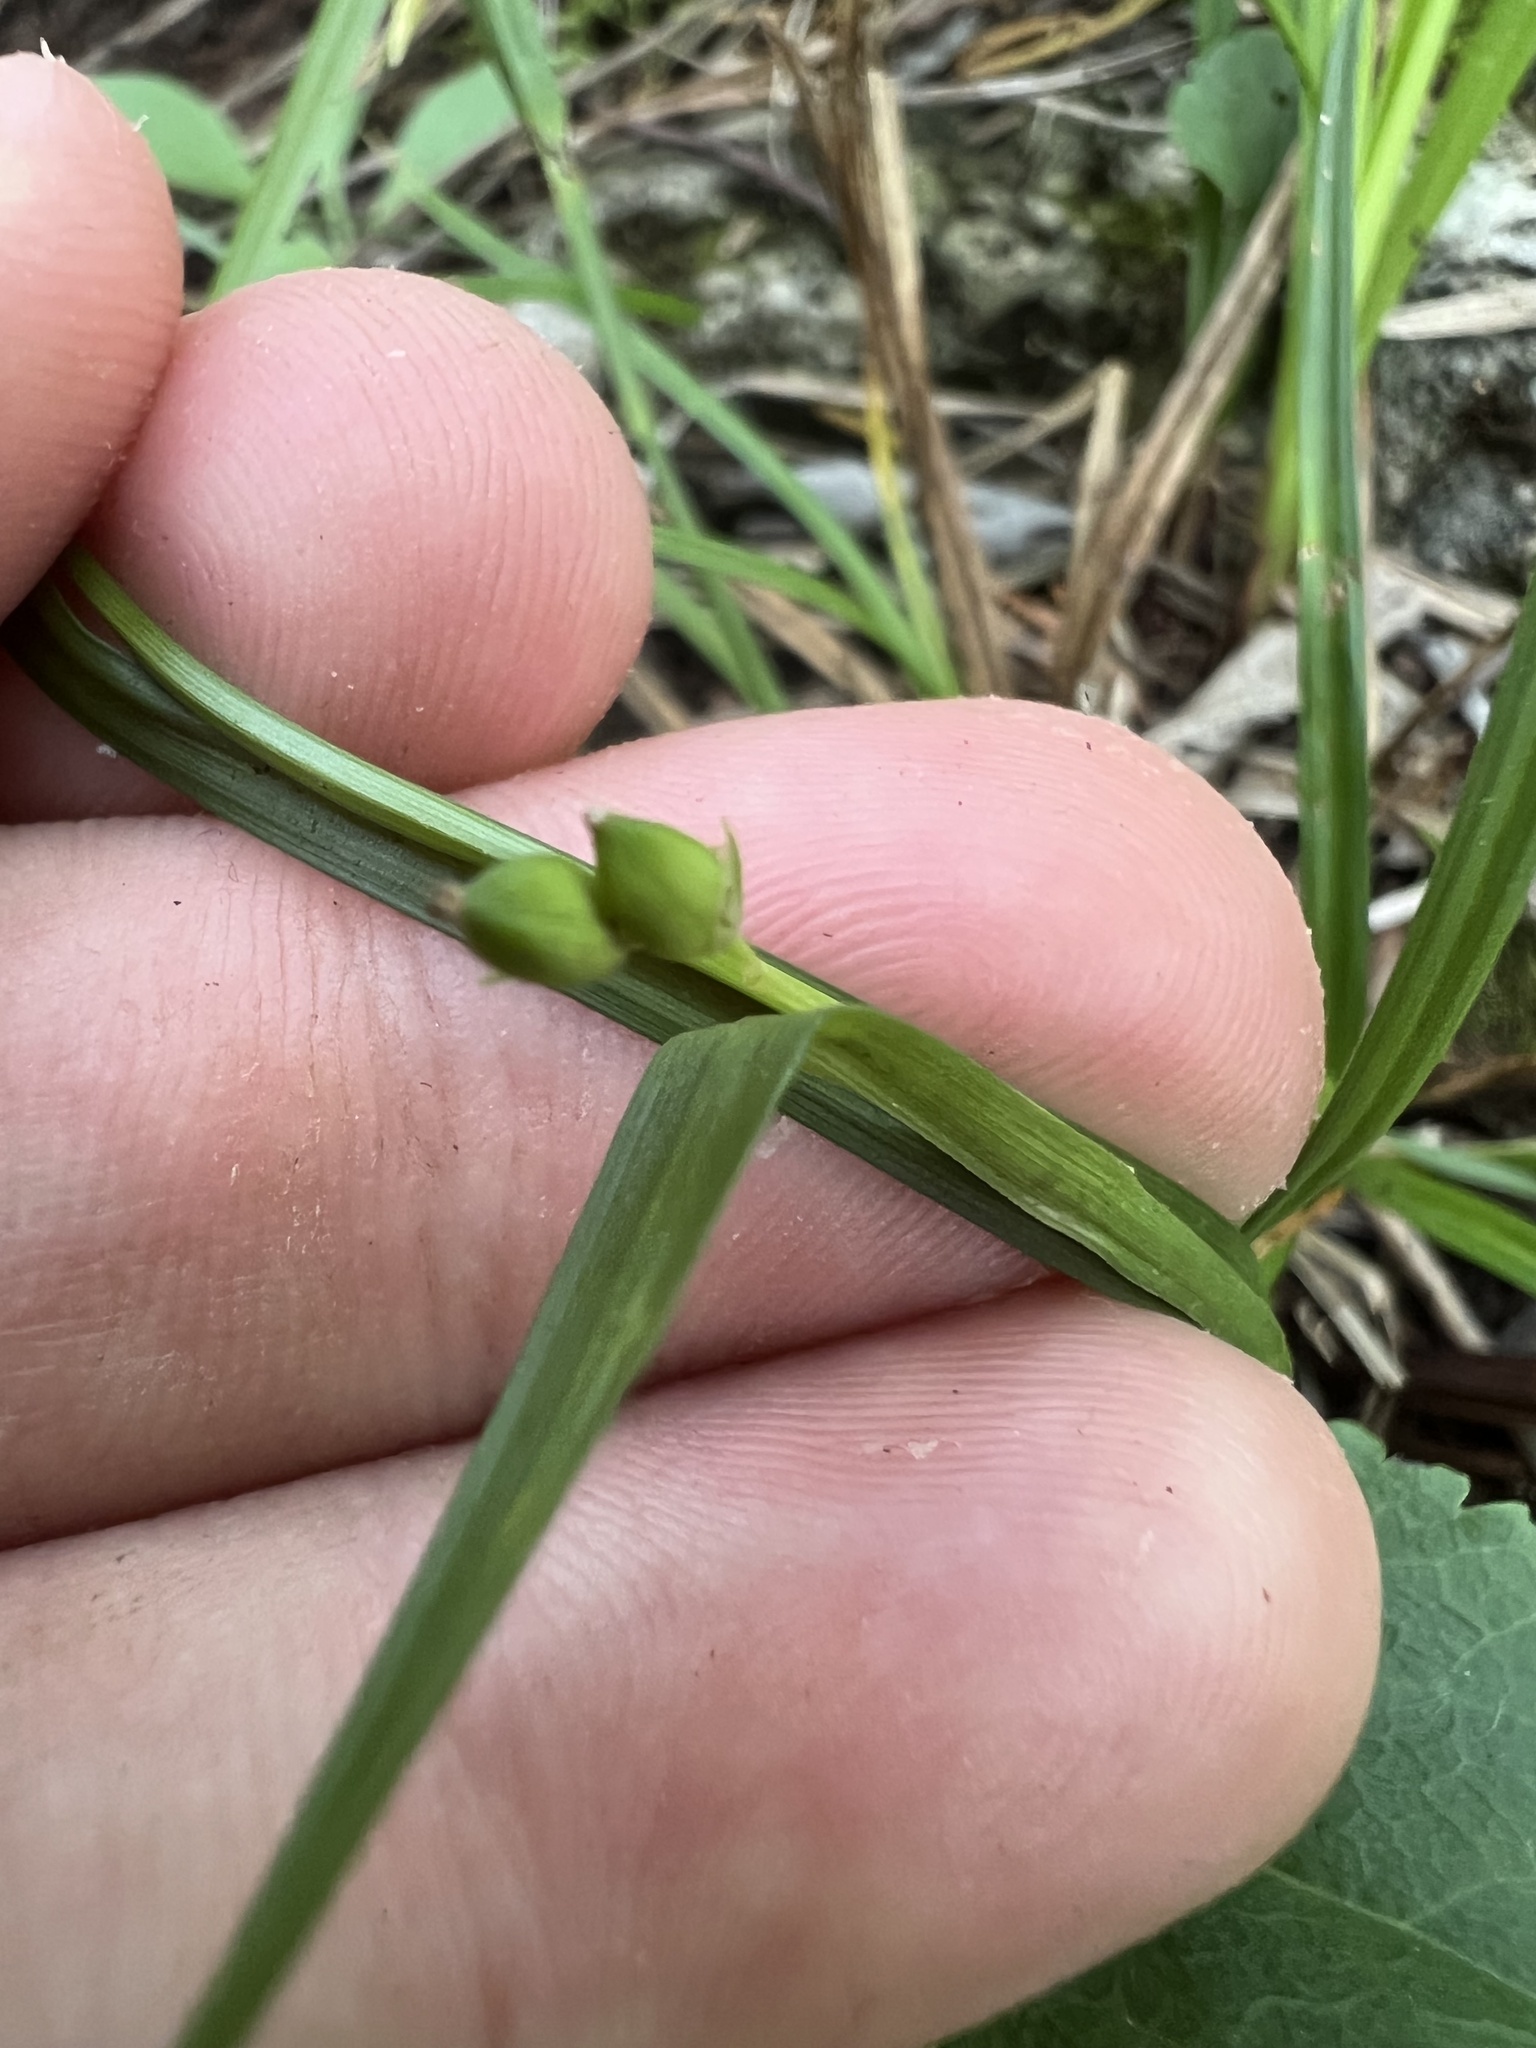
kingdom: Plantae
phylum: Tracheophyta
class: Liliopsida
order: Poales
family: Cyperaceae
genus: Carex
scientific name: Carex digitalis
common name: Slender wood sedge
